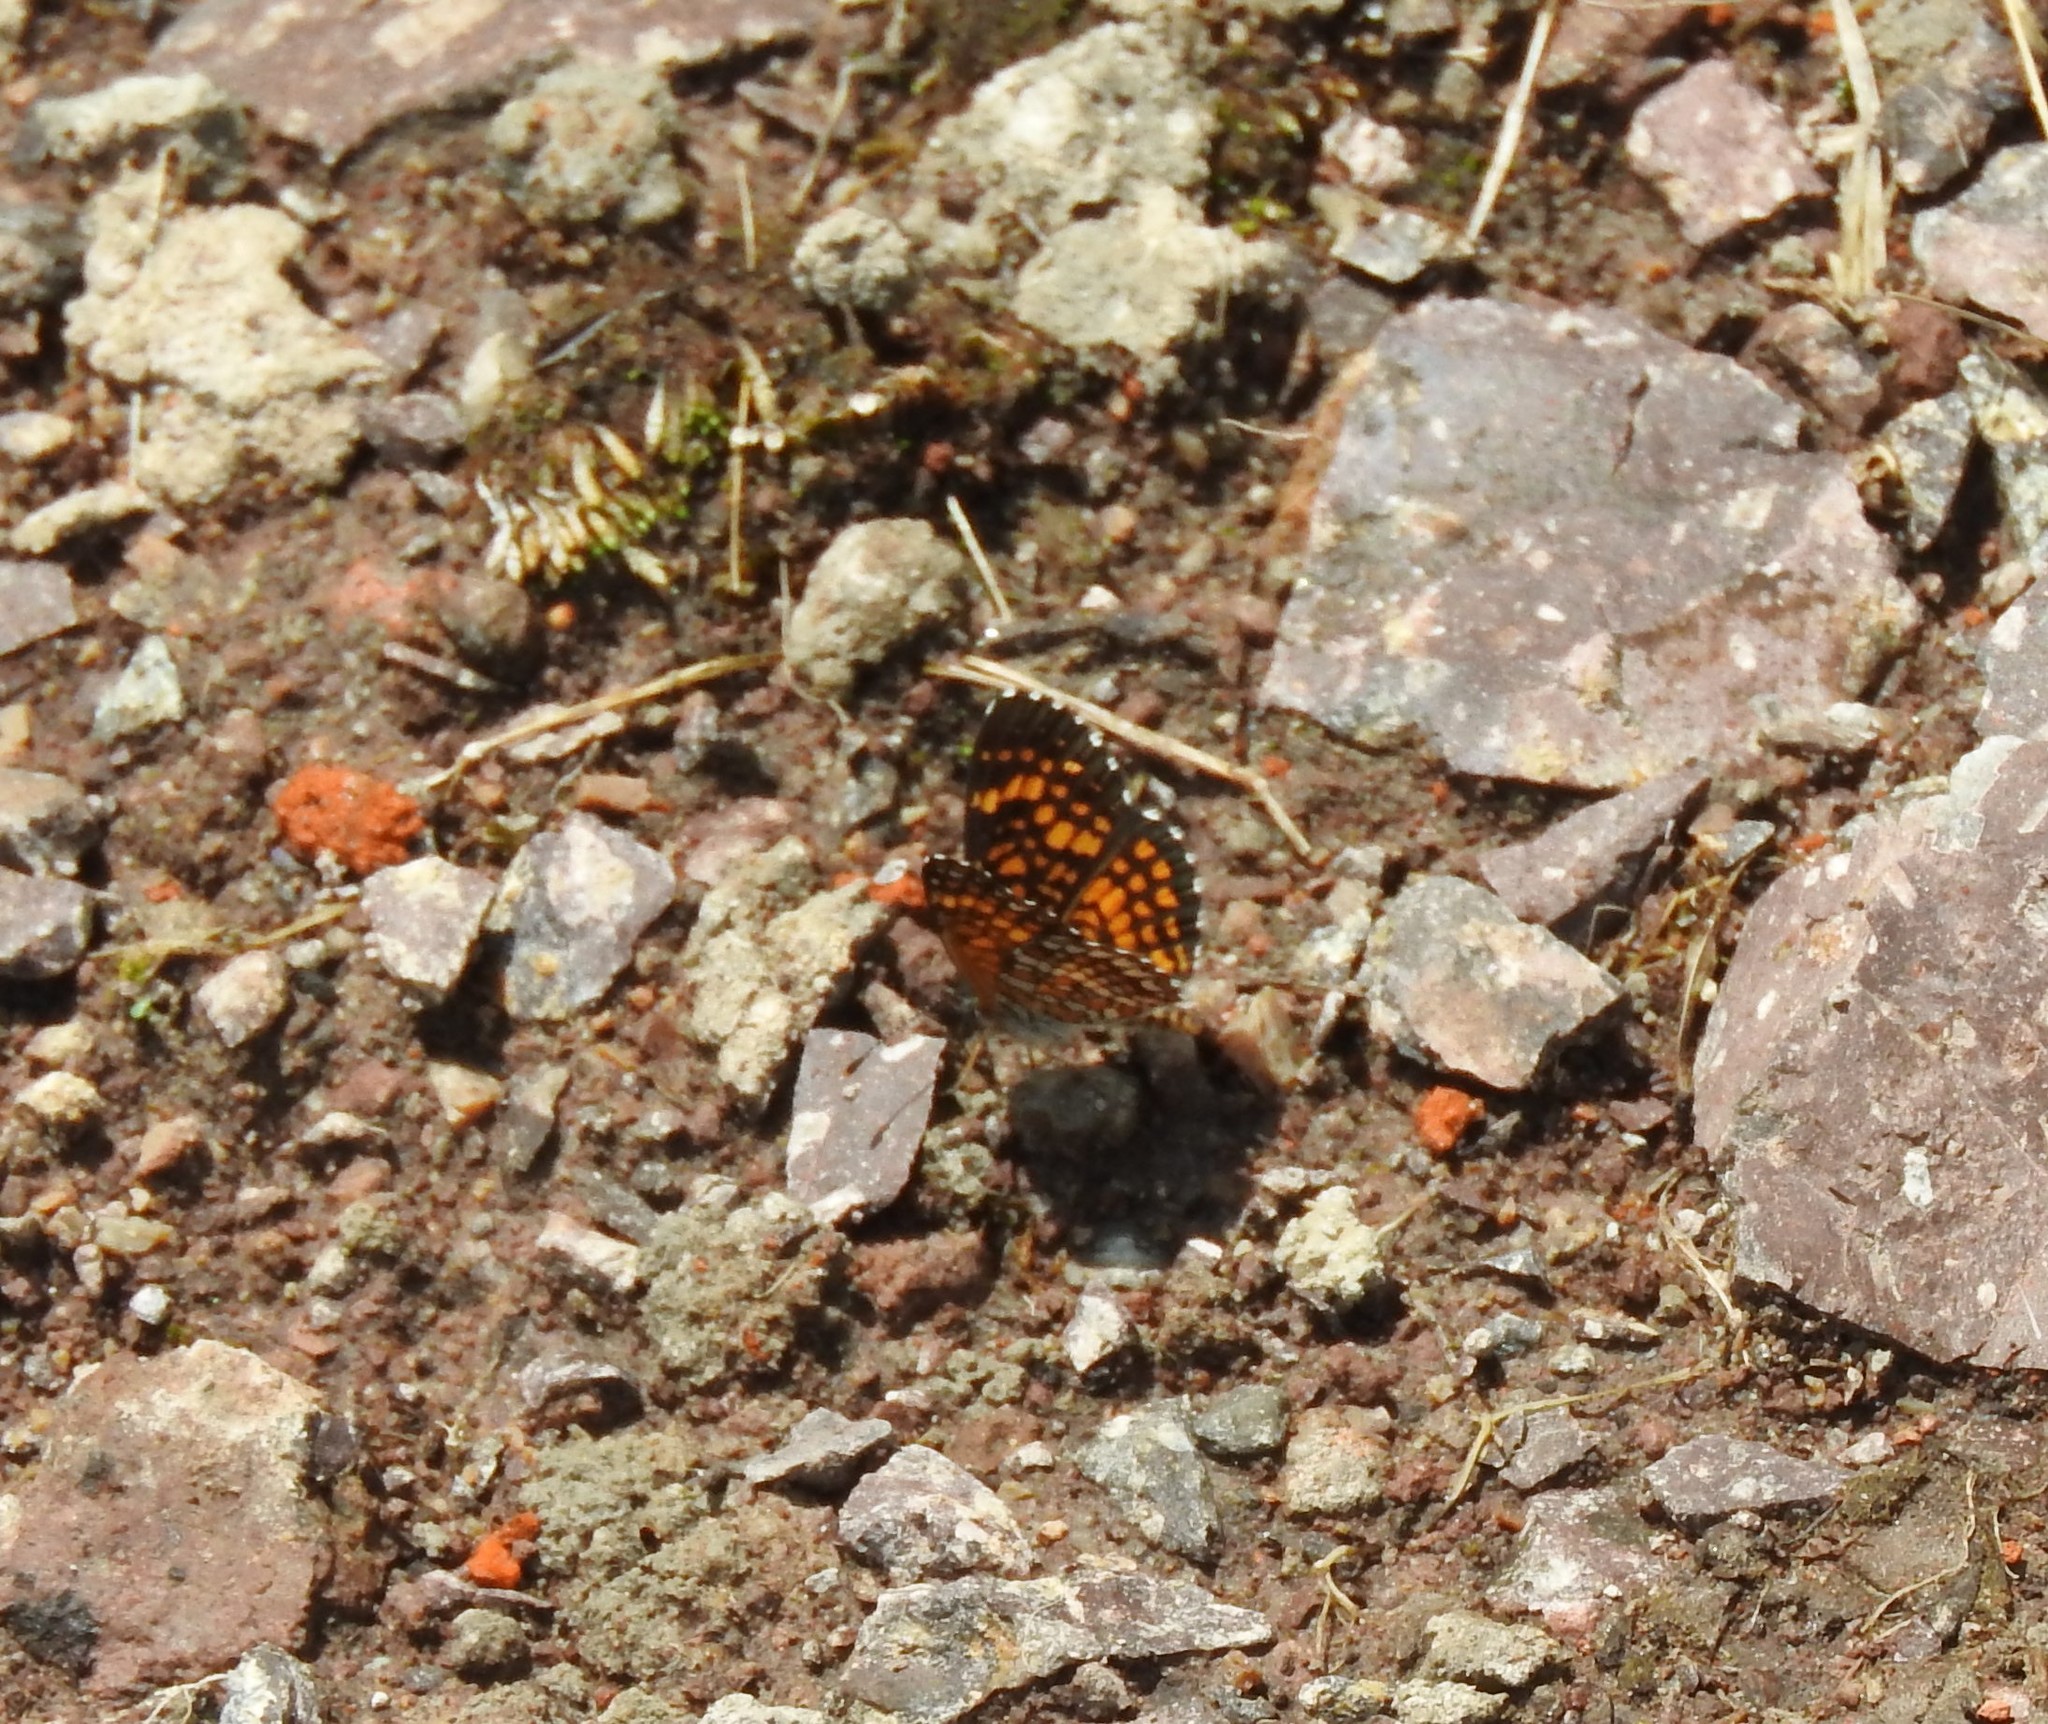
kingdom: Animalia
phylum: Arthropoda
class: Insecta
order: Lepidoptera
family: Nymphalidae
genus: Texola
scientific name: Texola elada
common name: Elada checkerspot
